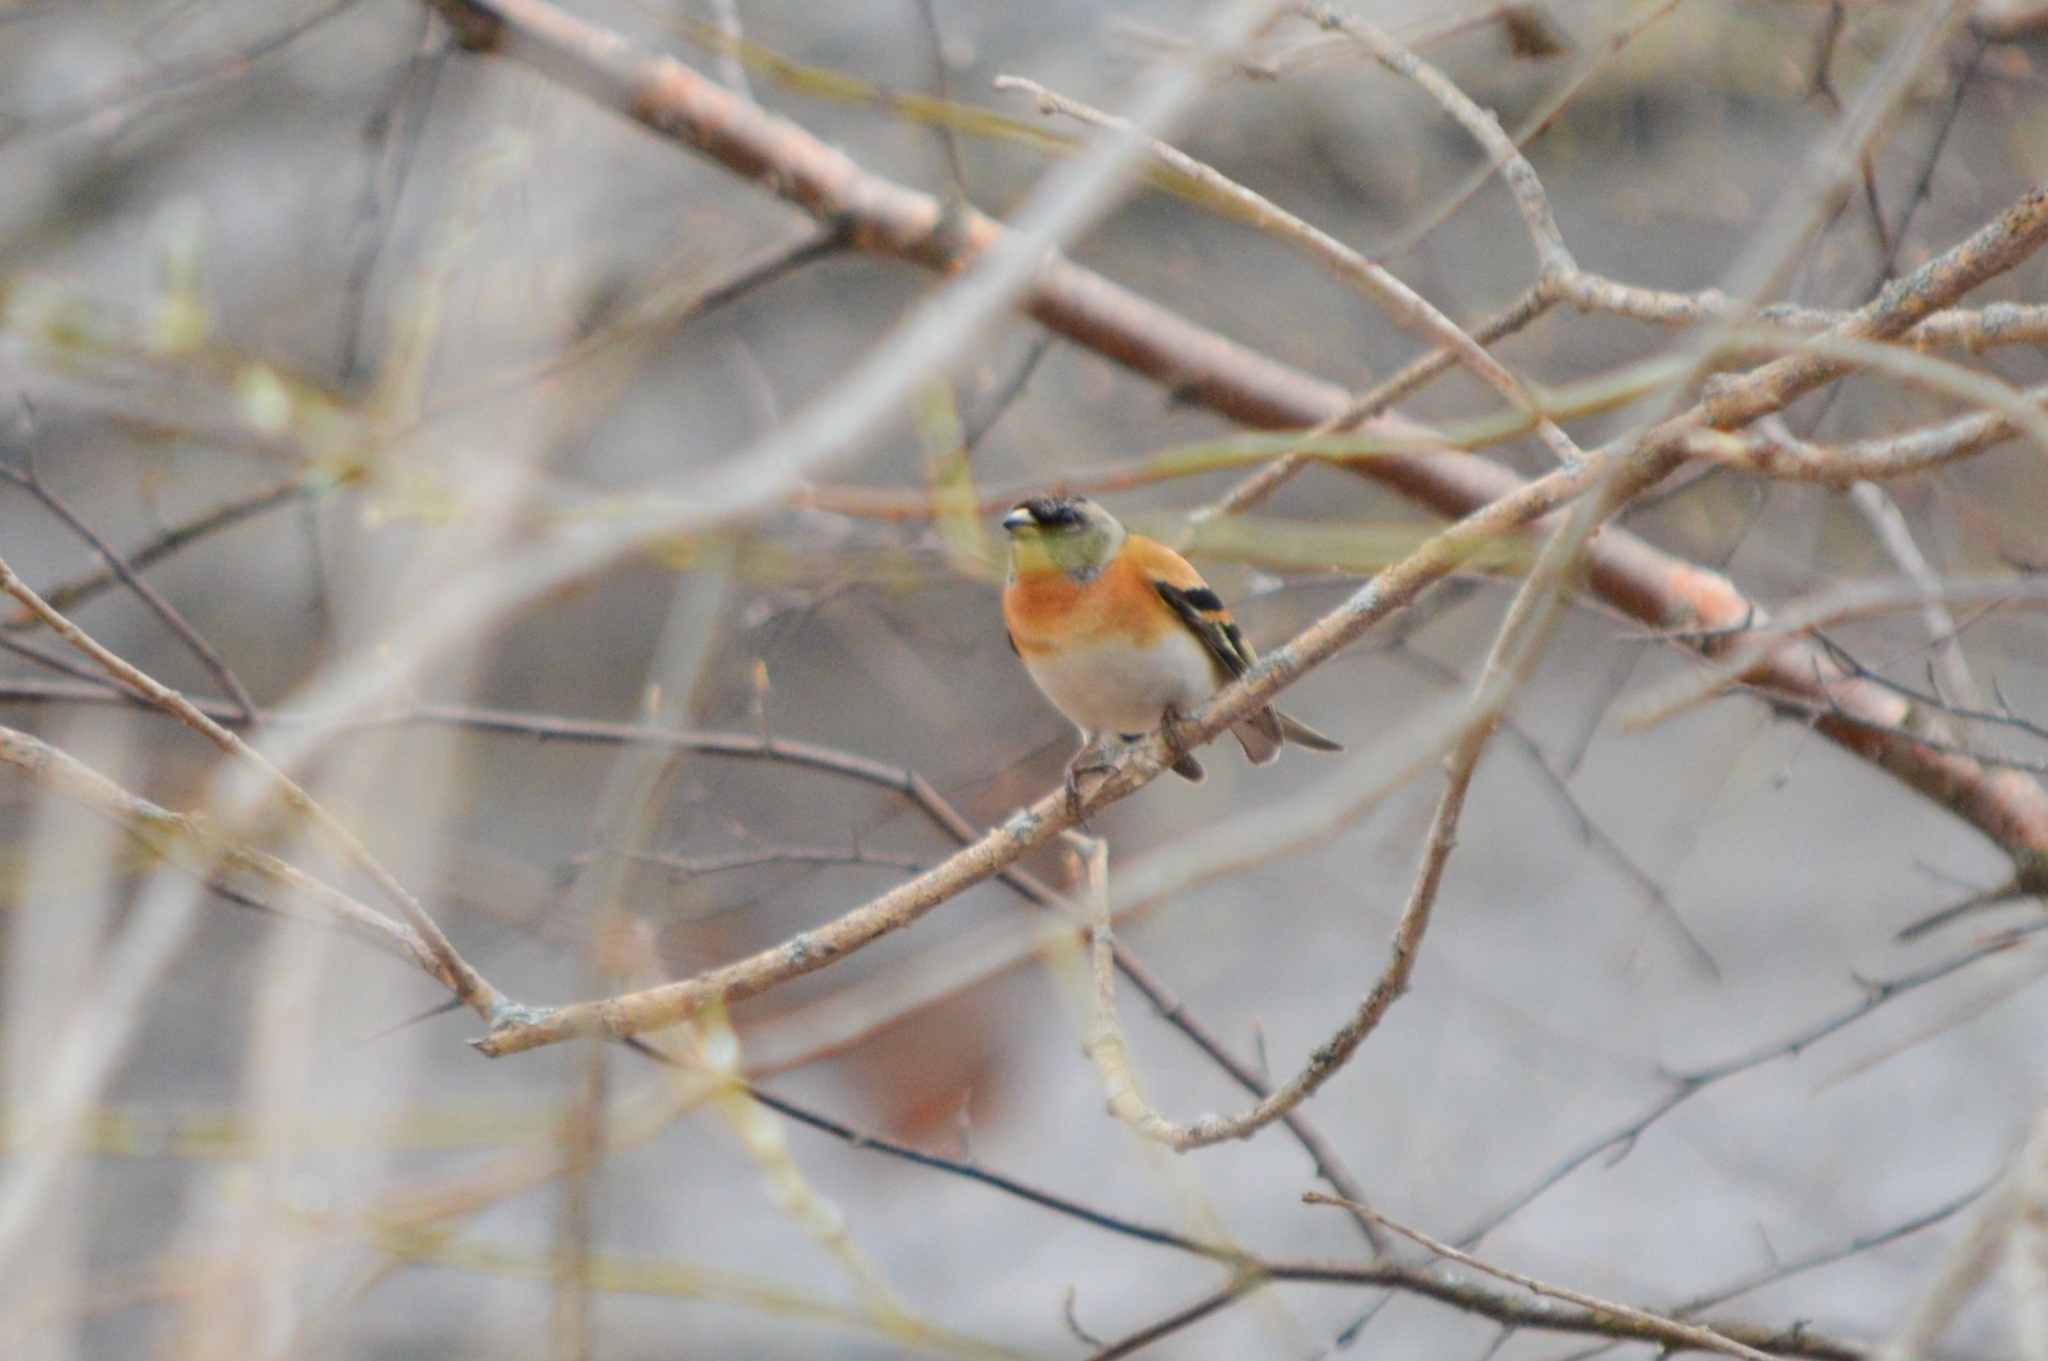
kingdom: Animalia
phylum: Chordata
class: Aves
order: Passeriformes
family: Fringillidae
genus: Fringilla
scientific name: Fringilla montifringilla
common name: Brambling
